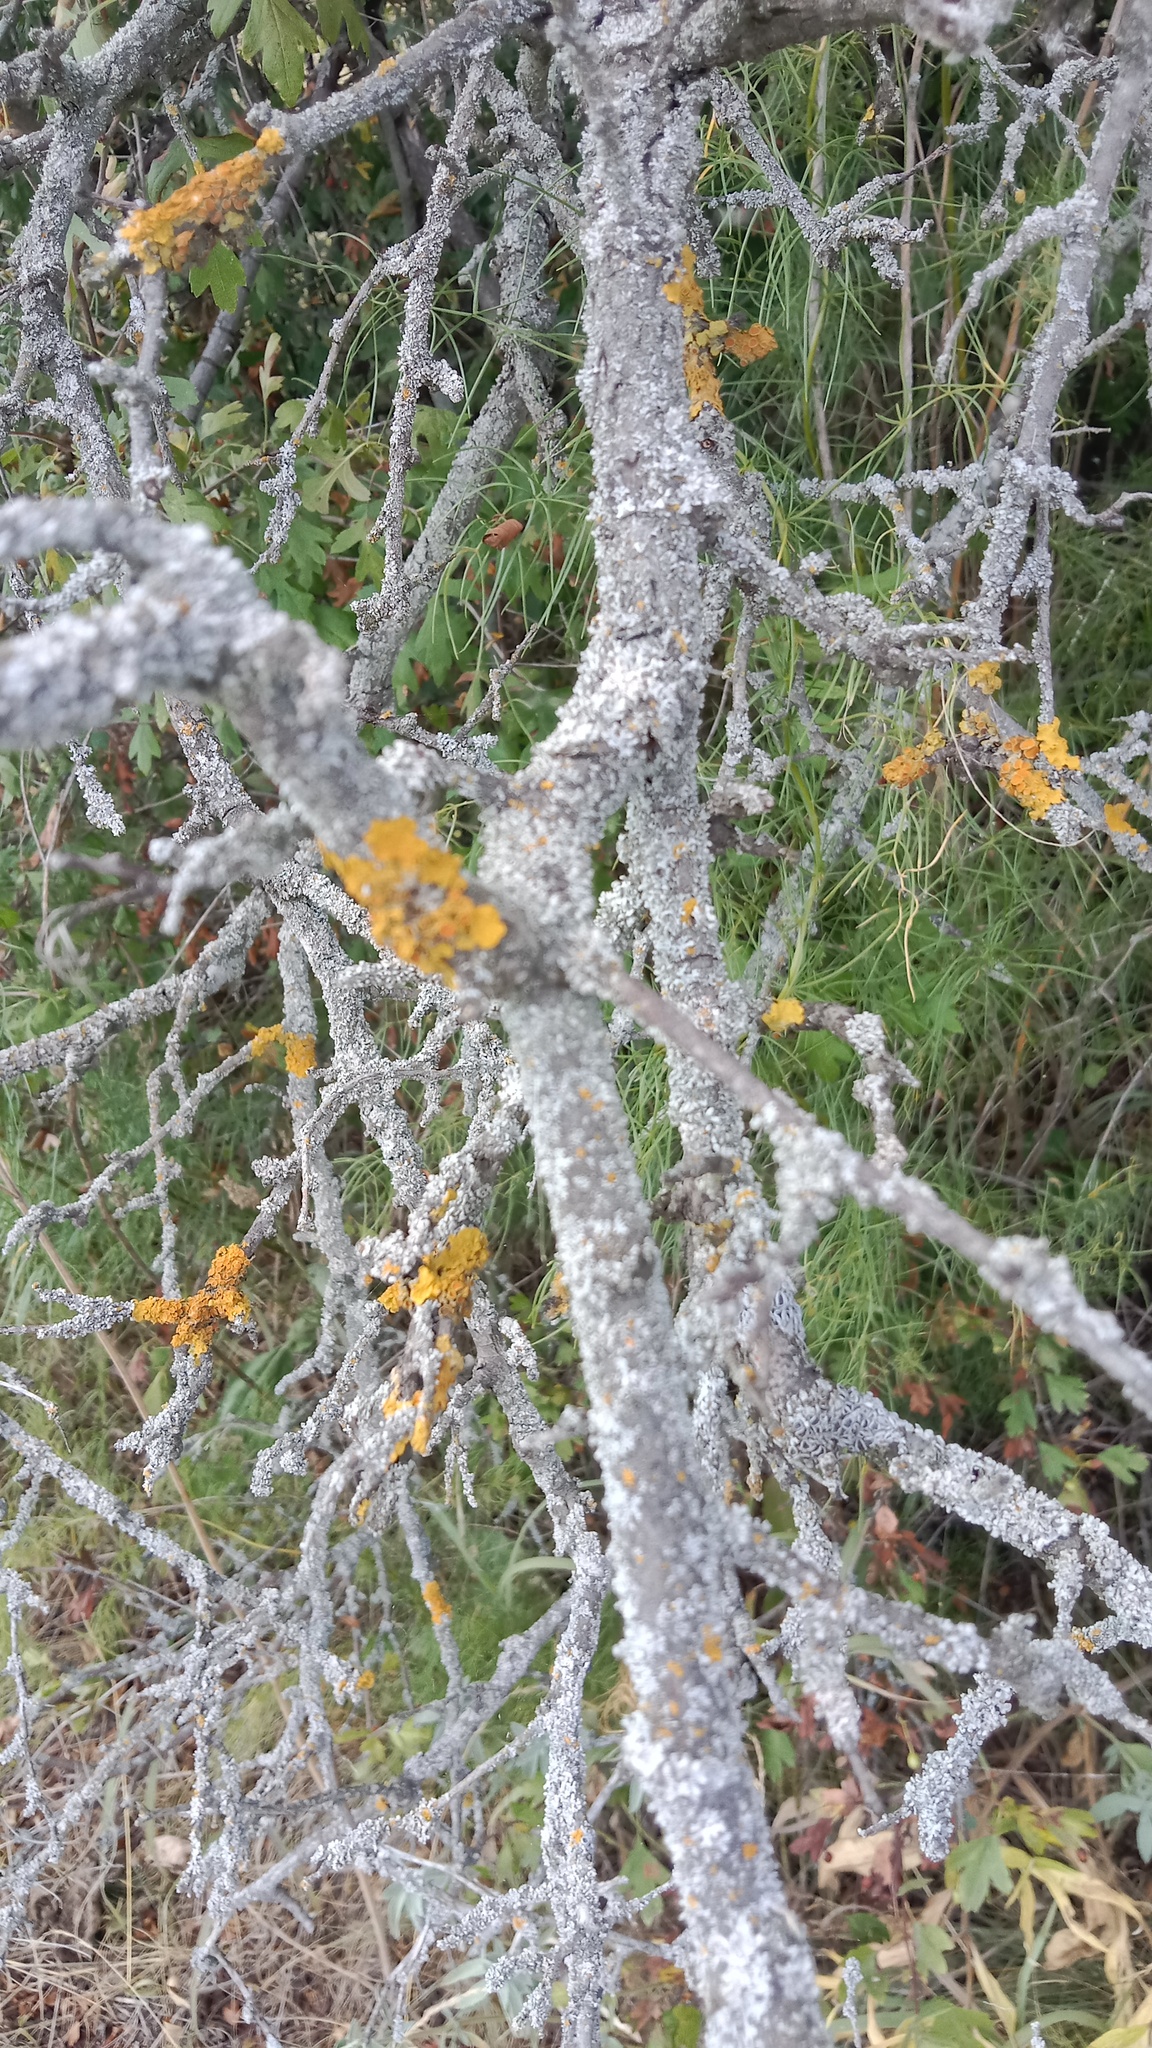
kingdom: Fungi
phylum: Ascomycota
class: Lecanoromycetes
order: Teloschistales
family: Teloschistaceae
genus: Xanthoria
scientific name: Xanthoria parietina
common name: Common orange lichen
